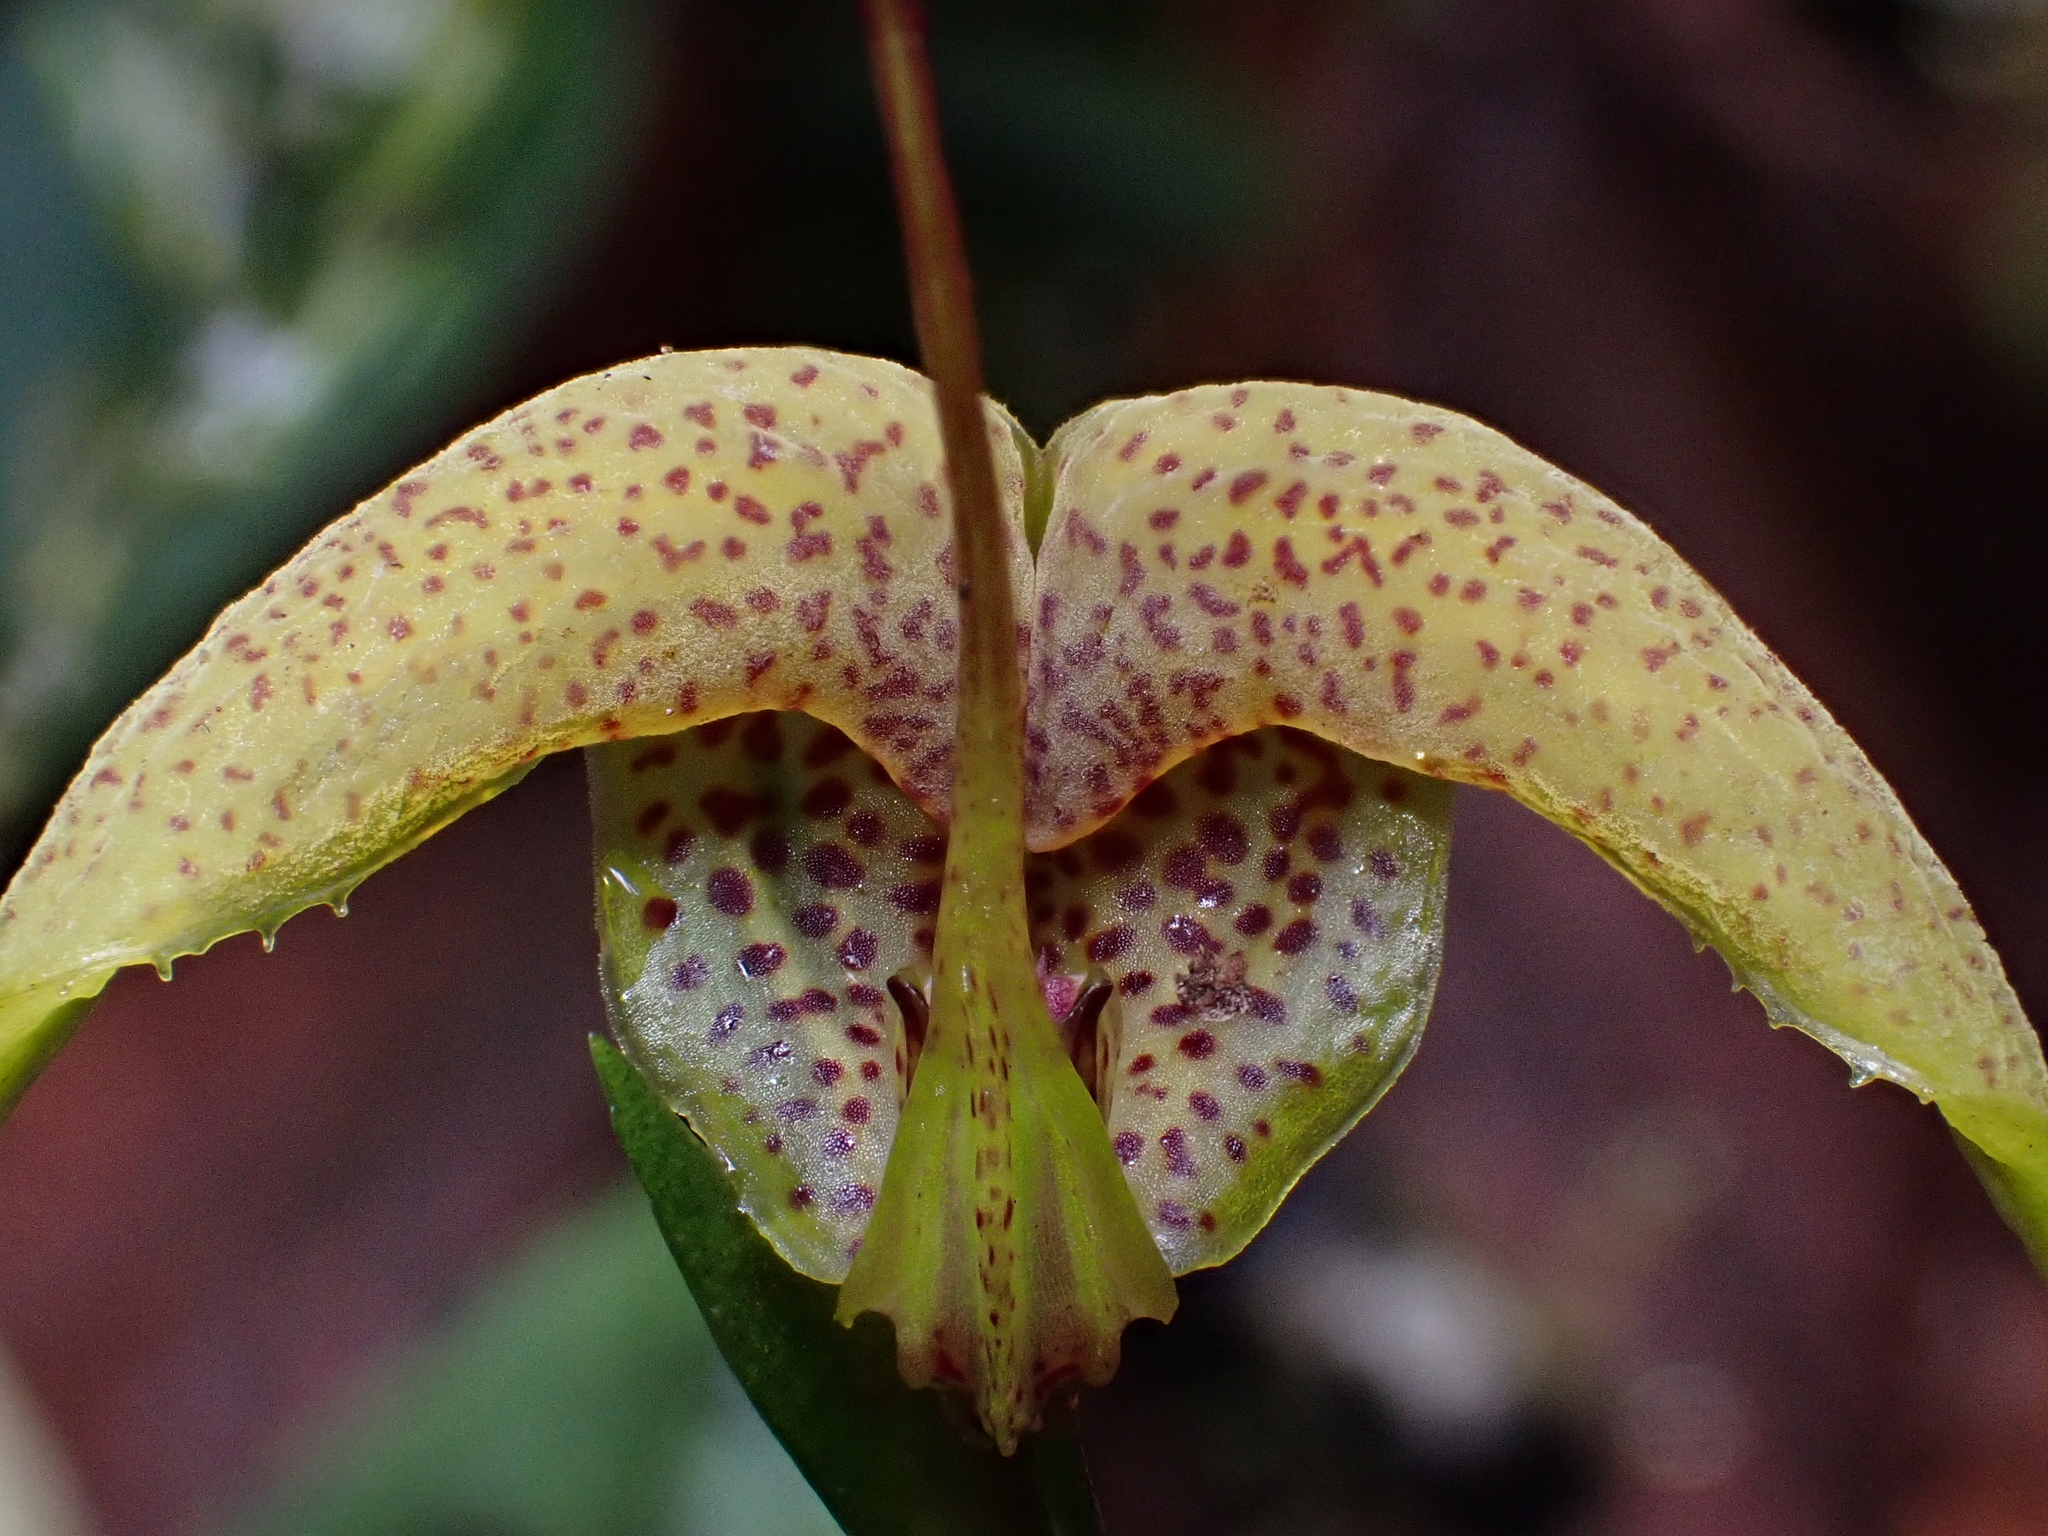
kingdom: Plantae
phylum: Tracheophyta
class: Liliopsida
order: Asparagales
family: Orchidaceae
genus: Scaphosepalum
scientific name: Scaphosepalum grande
